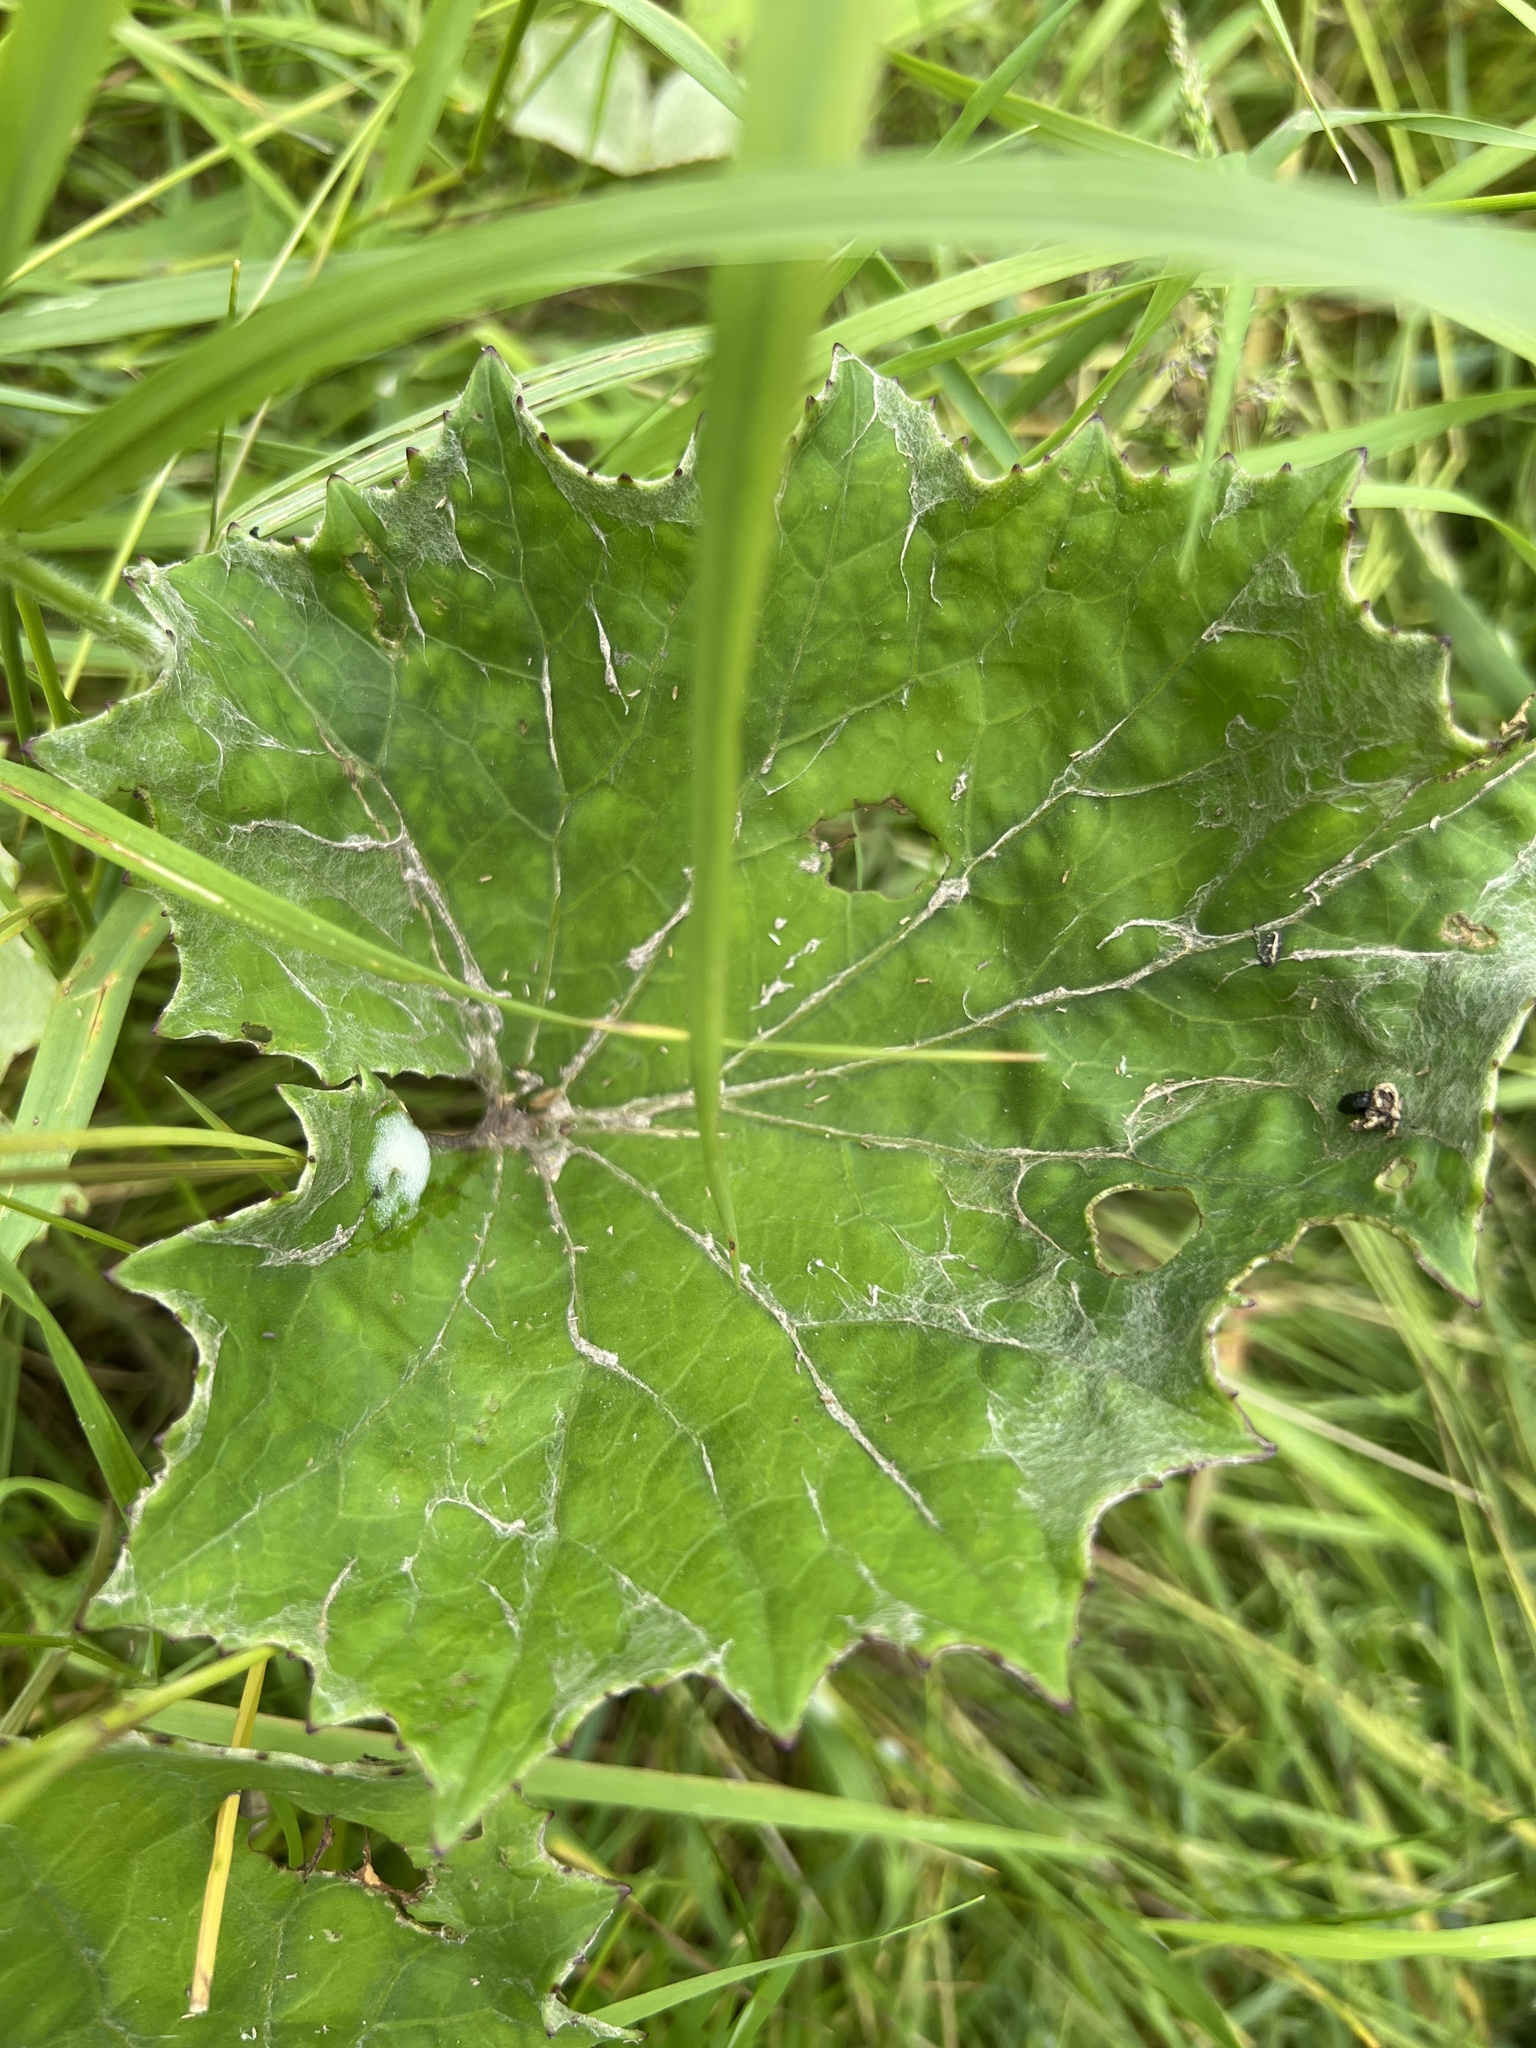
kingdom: Plantae
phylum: Tracheophyta
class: Magnoliopsida
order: Asterales
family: Asteraceae
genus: Tussilago
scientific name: Tussilago farfara
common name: Coltsfoot
